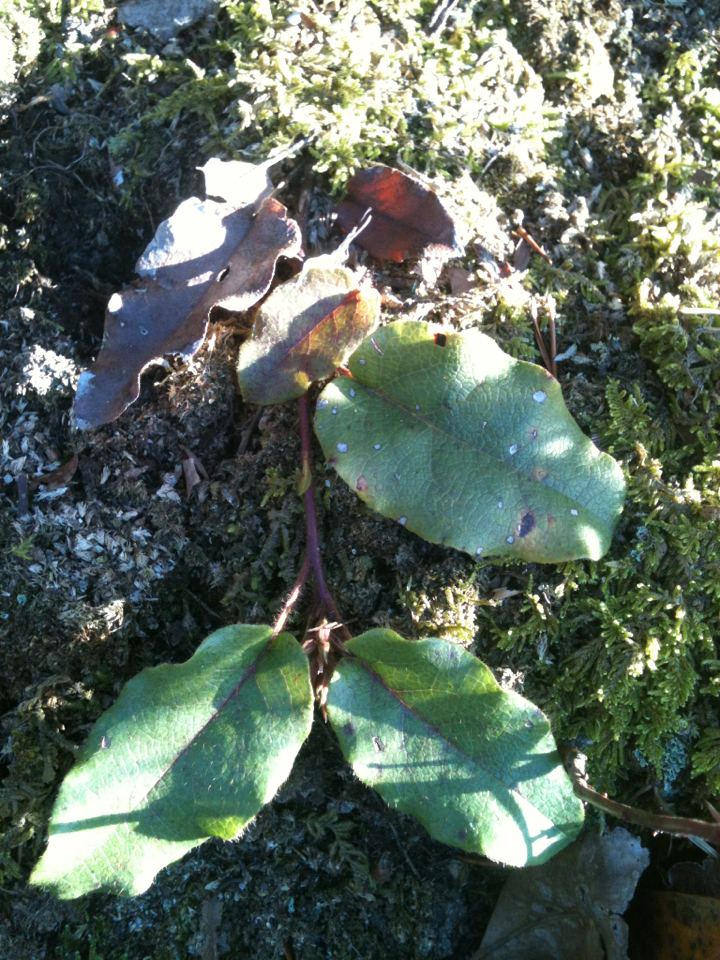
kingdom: Plantae
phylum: Tracheophyta
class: Magnoliopsida
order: Ericales
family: Ericaceae
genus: Epigaea
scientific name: Epigaea repens
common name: Gravelroot
